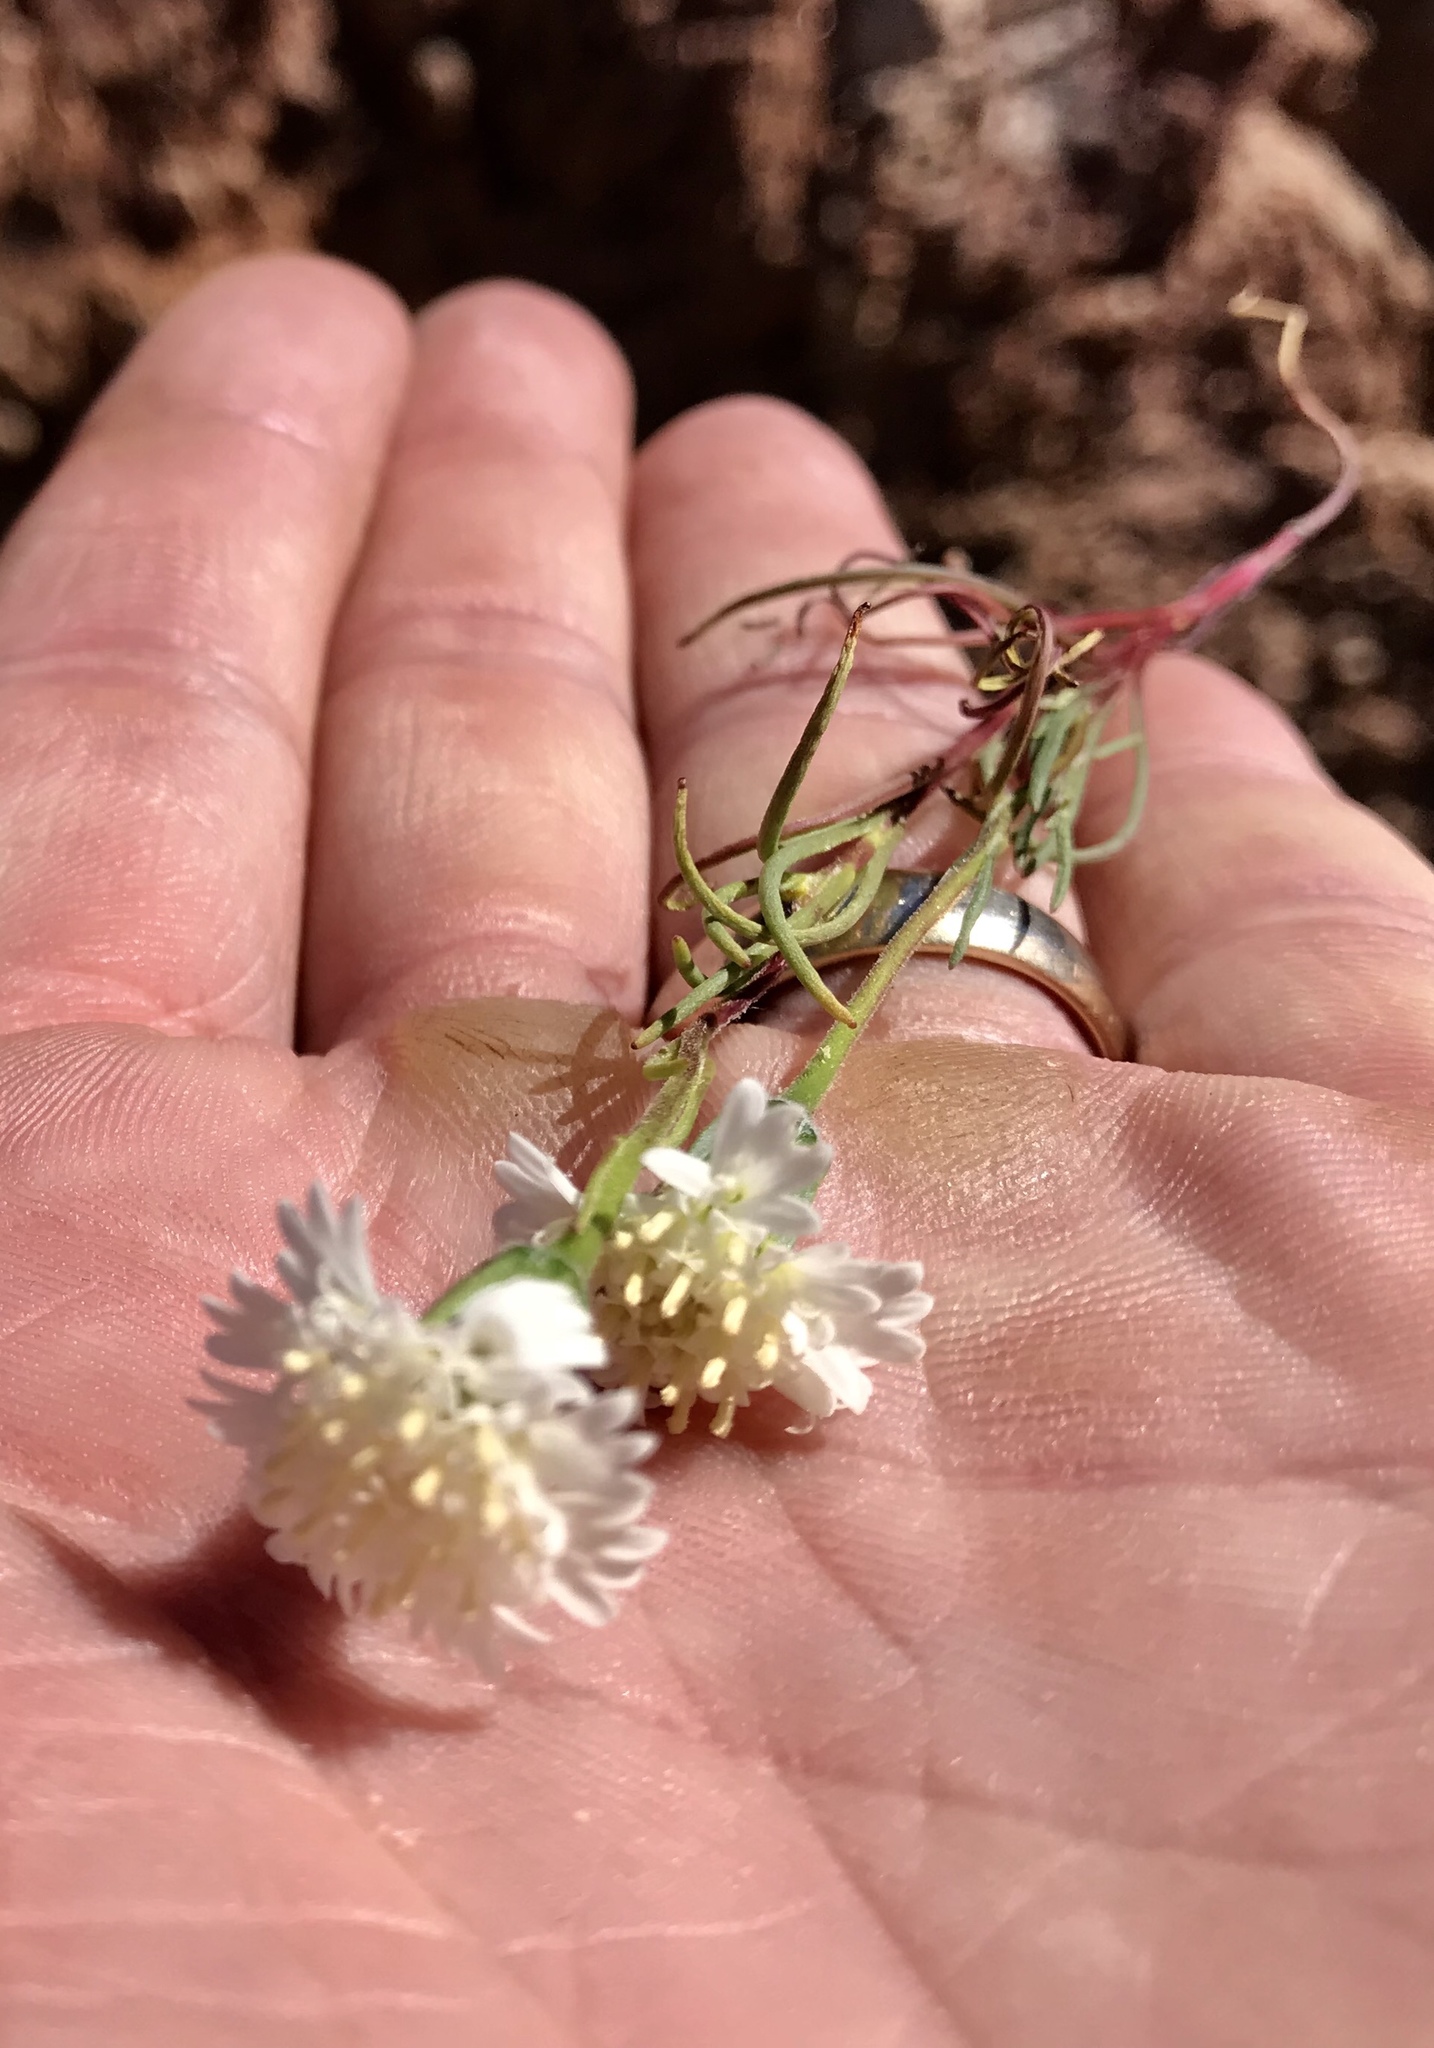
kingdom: Plantae
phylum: Tracheophyta
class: Magnoliopsida
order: Asterales
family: Asteraceae
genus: Chaenactis
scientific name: Chaenactis fremontii
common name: Fremont pincushion
